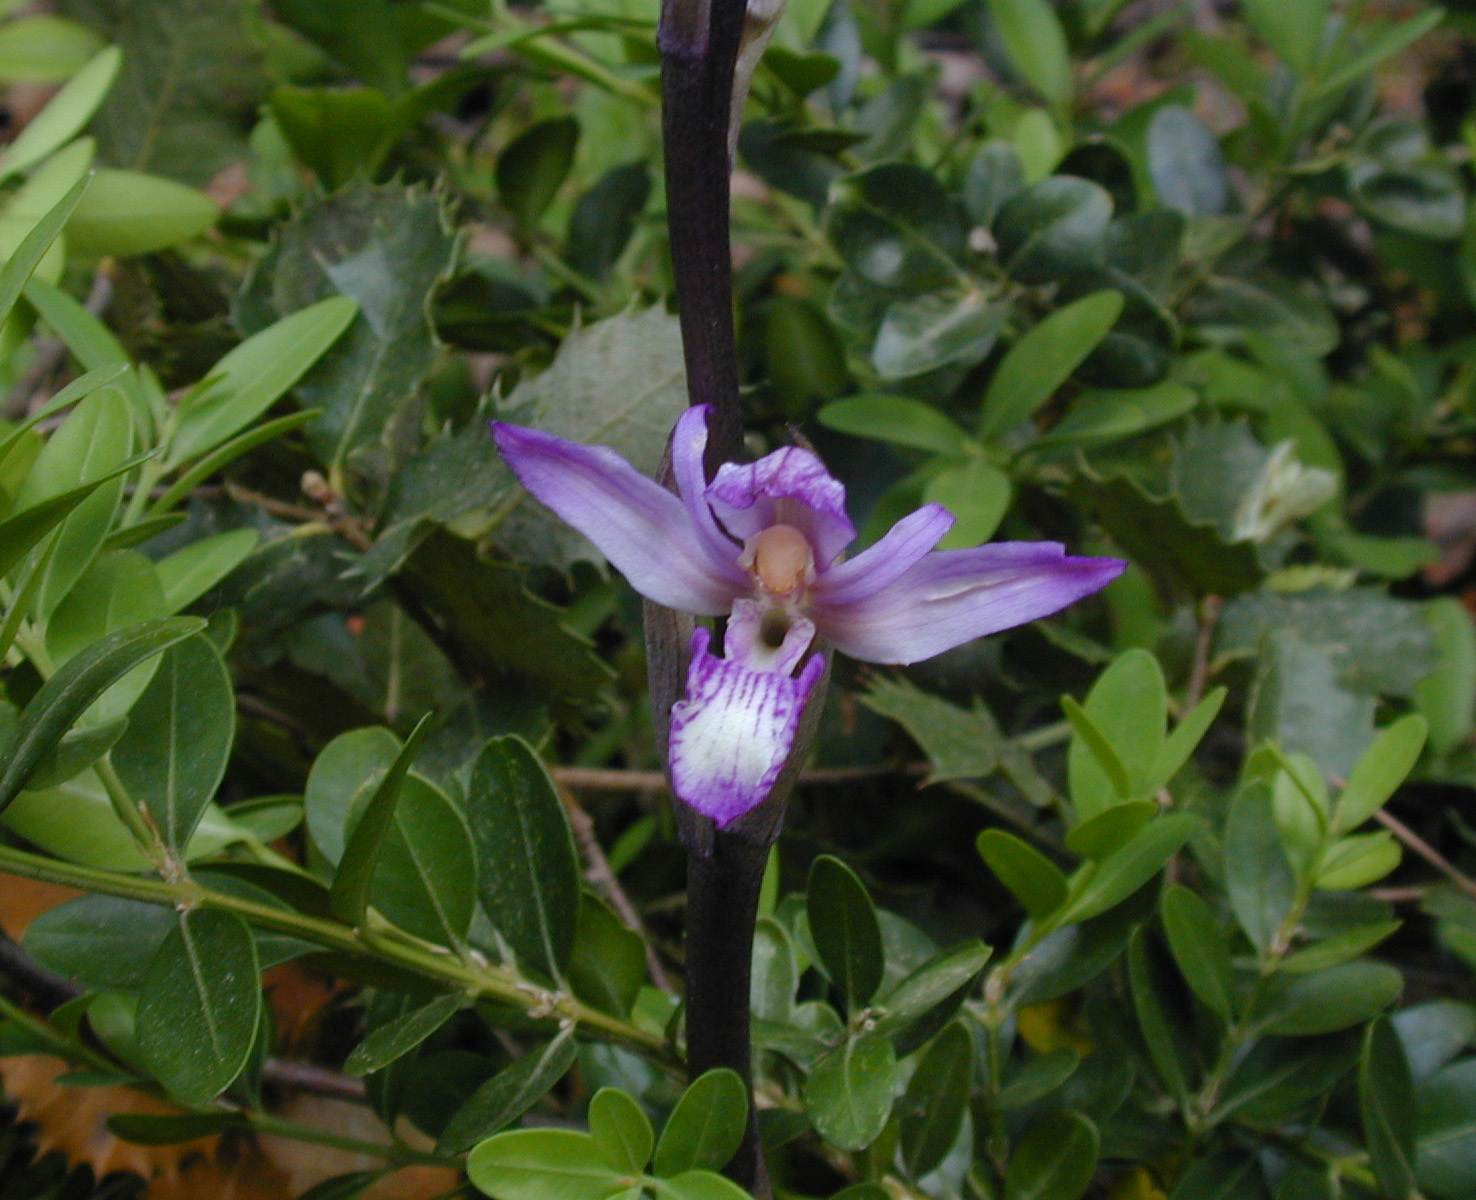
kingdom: Plantae
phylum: Tracheophyta
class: Liliopsida
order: Asparagales
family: Orchidaceae
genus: Limodorum
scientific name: Limodorum abortivum
